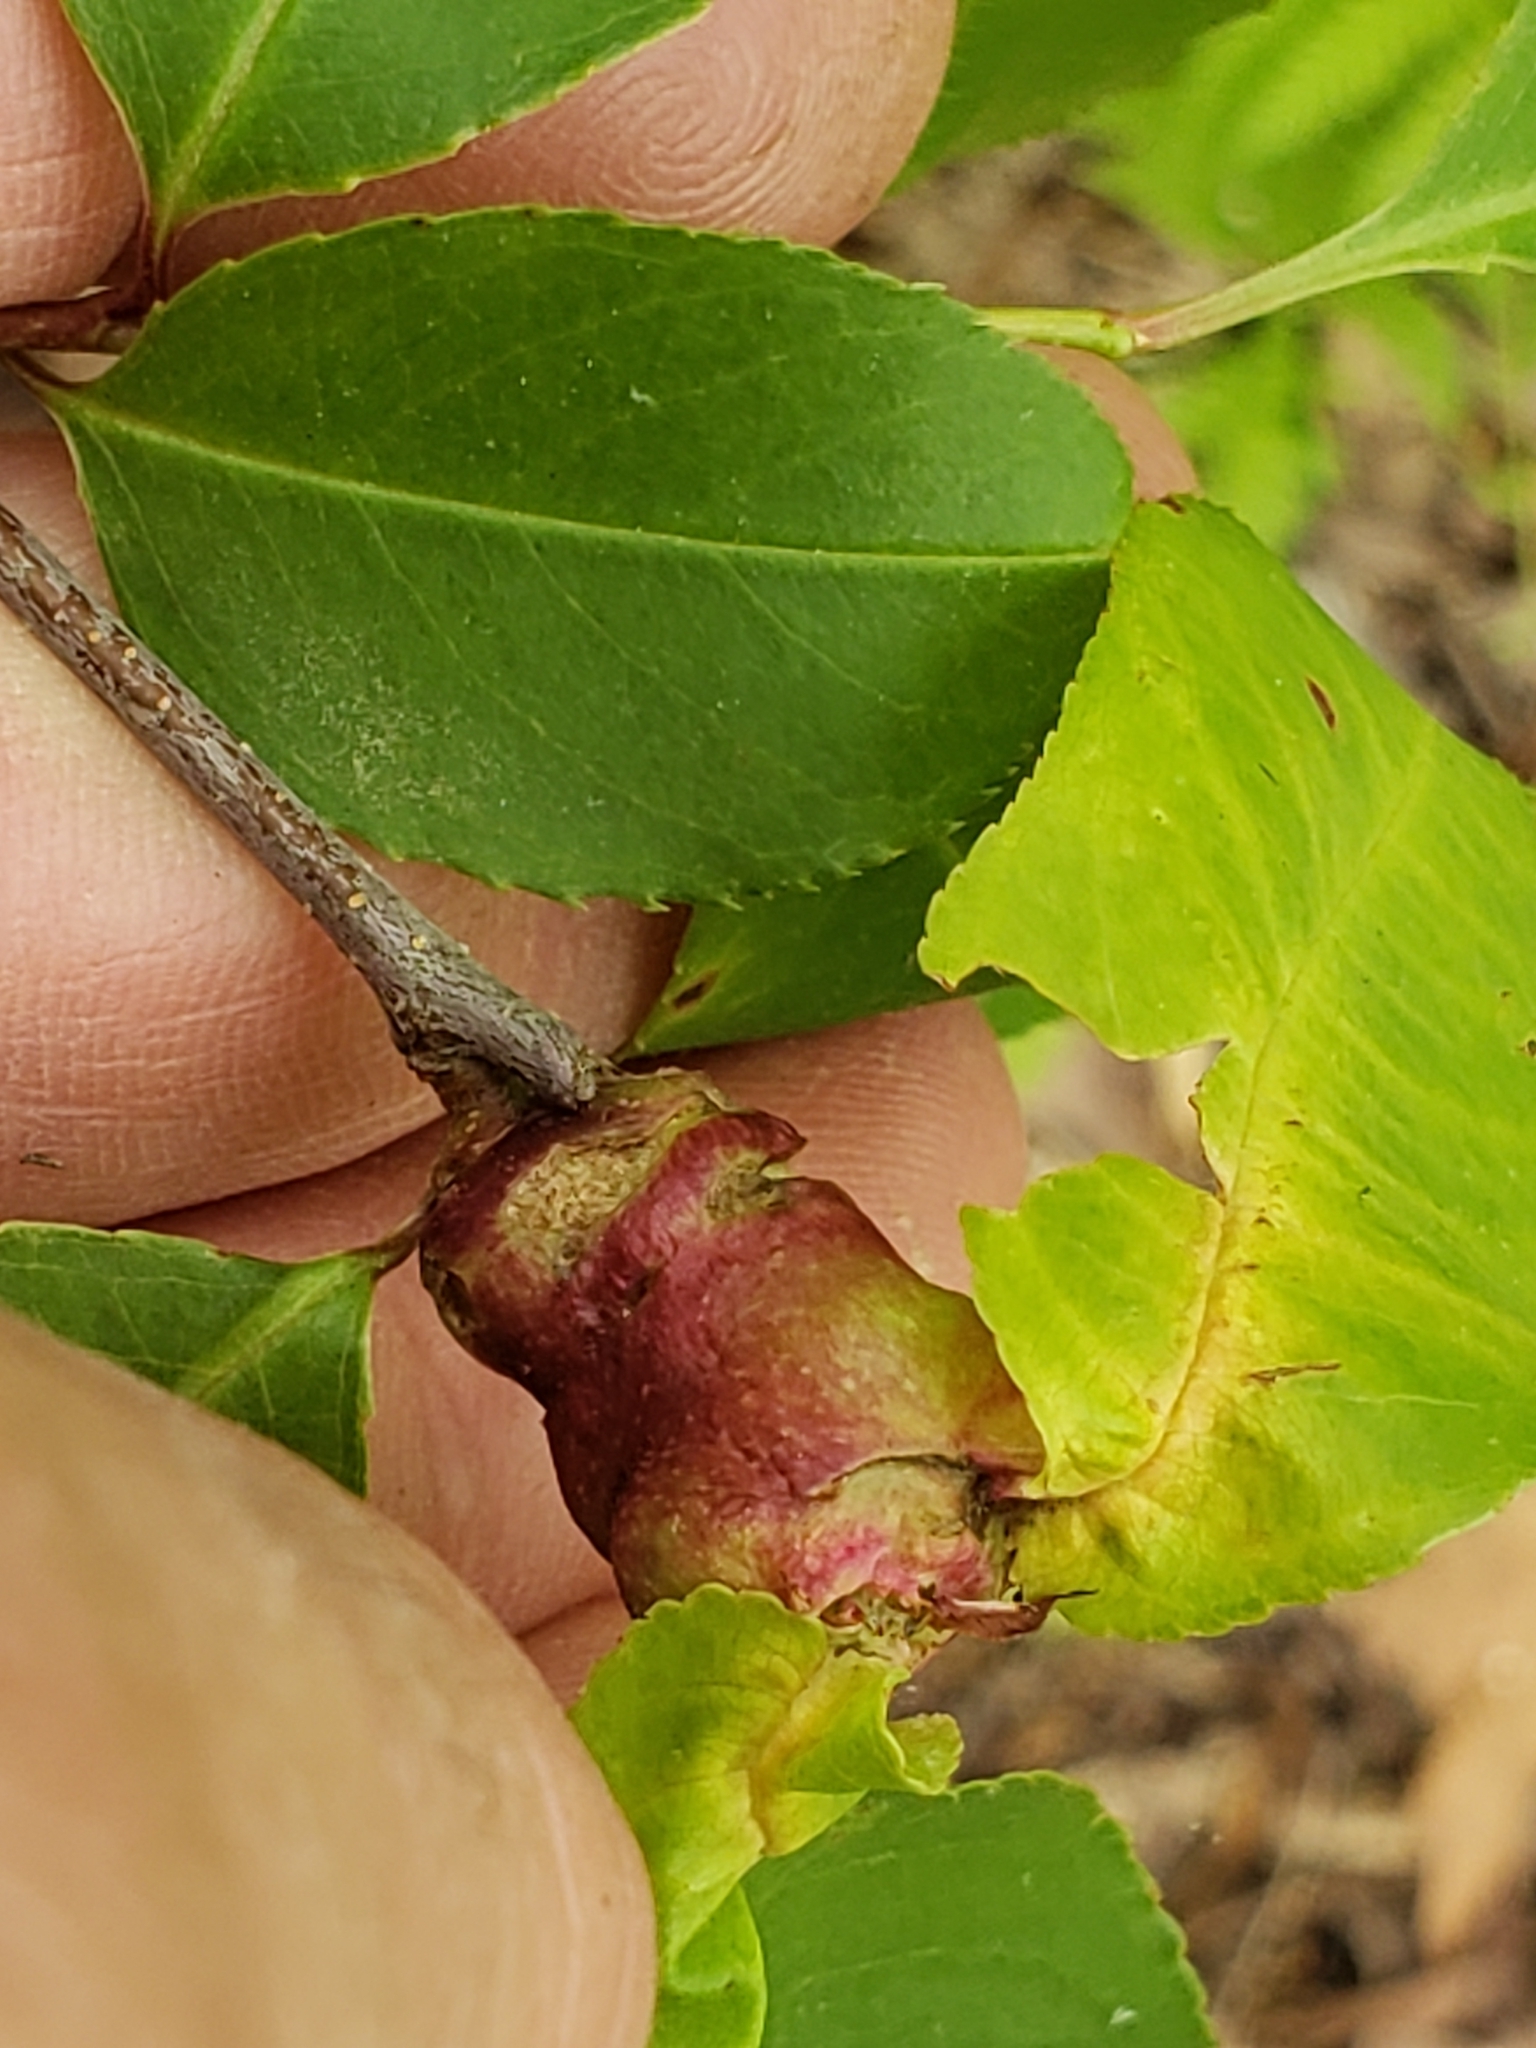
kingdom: Animalia
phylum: Arthropoda
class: Insecta
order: Diptera
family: Cecidomyiidae
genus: Contarinia
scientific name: Contarinia cerasiserotinae
